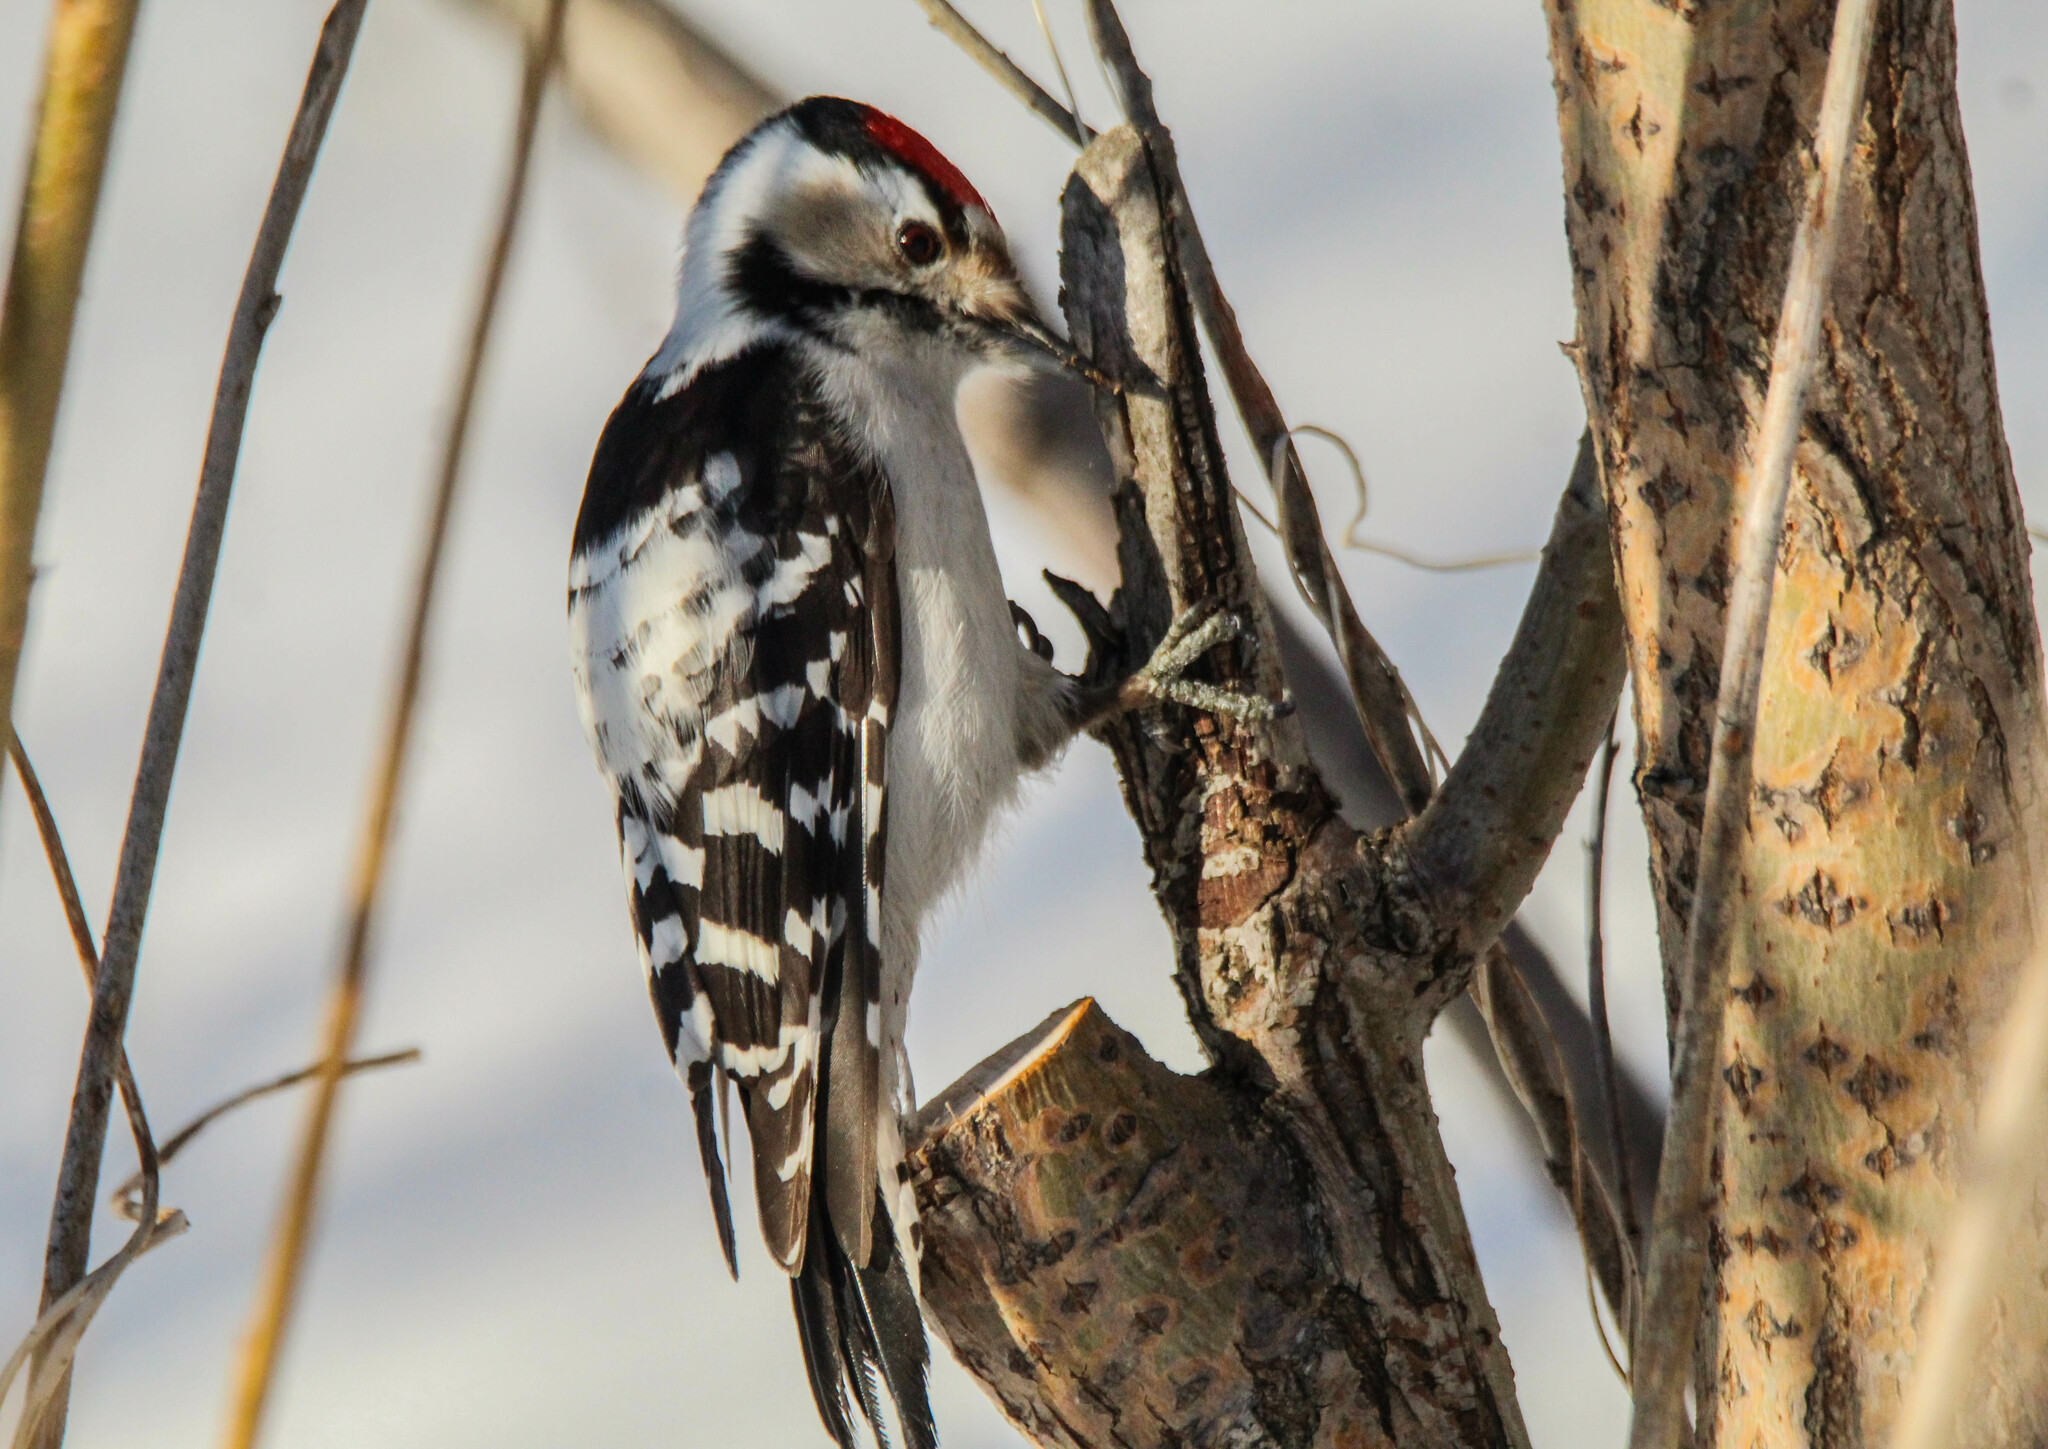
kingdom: Animalia
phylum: Chordata
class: Aves
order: Piciformes
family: Picidae
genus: Dryobates
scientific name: Dryobates minor
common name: Lesser spotted woodpecker
